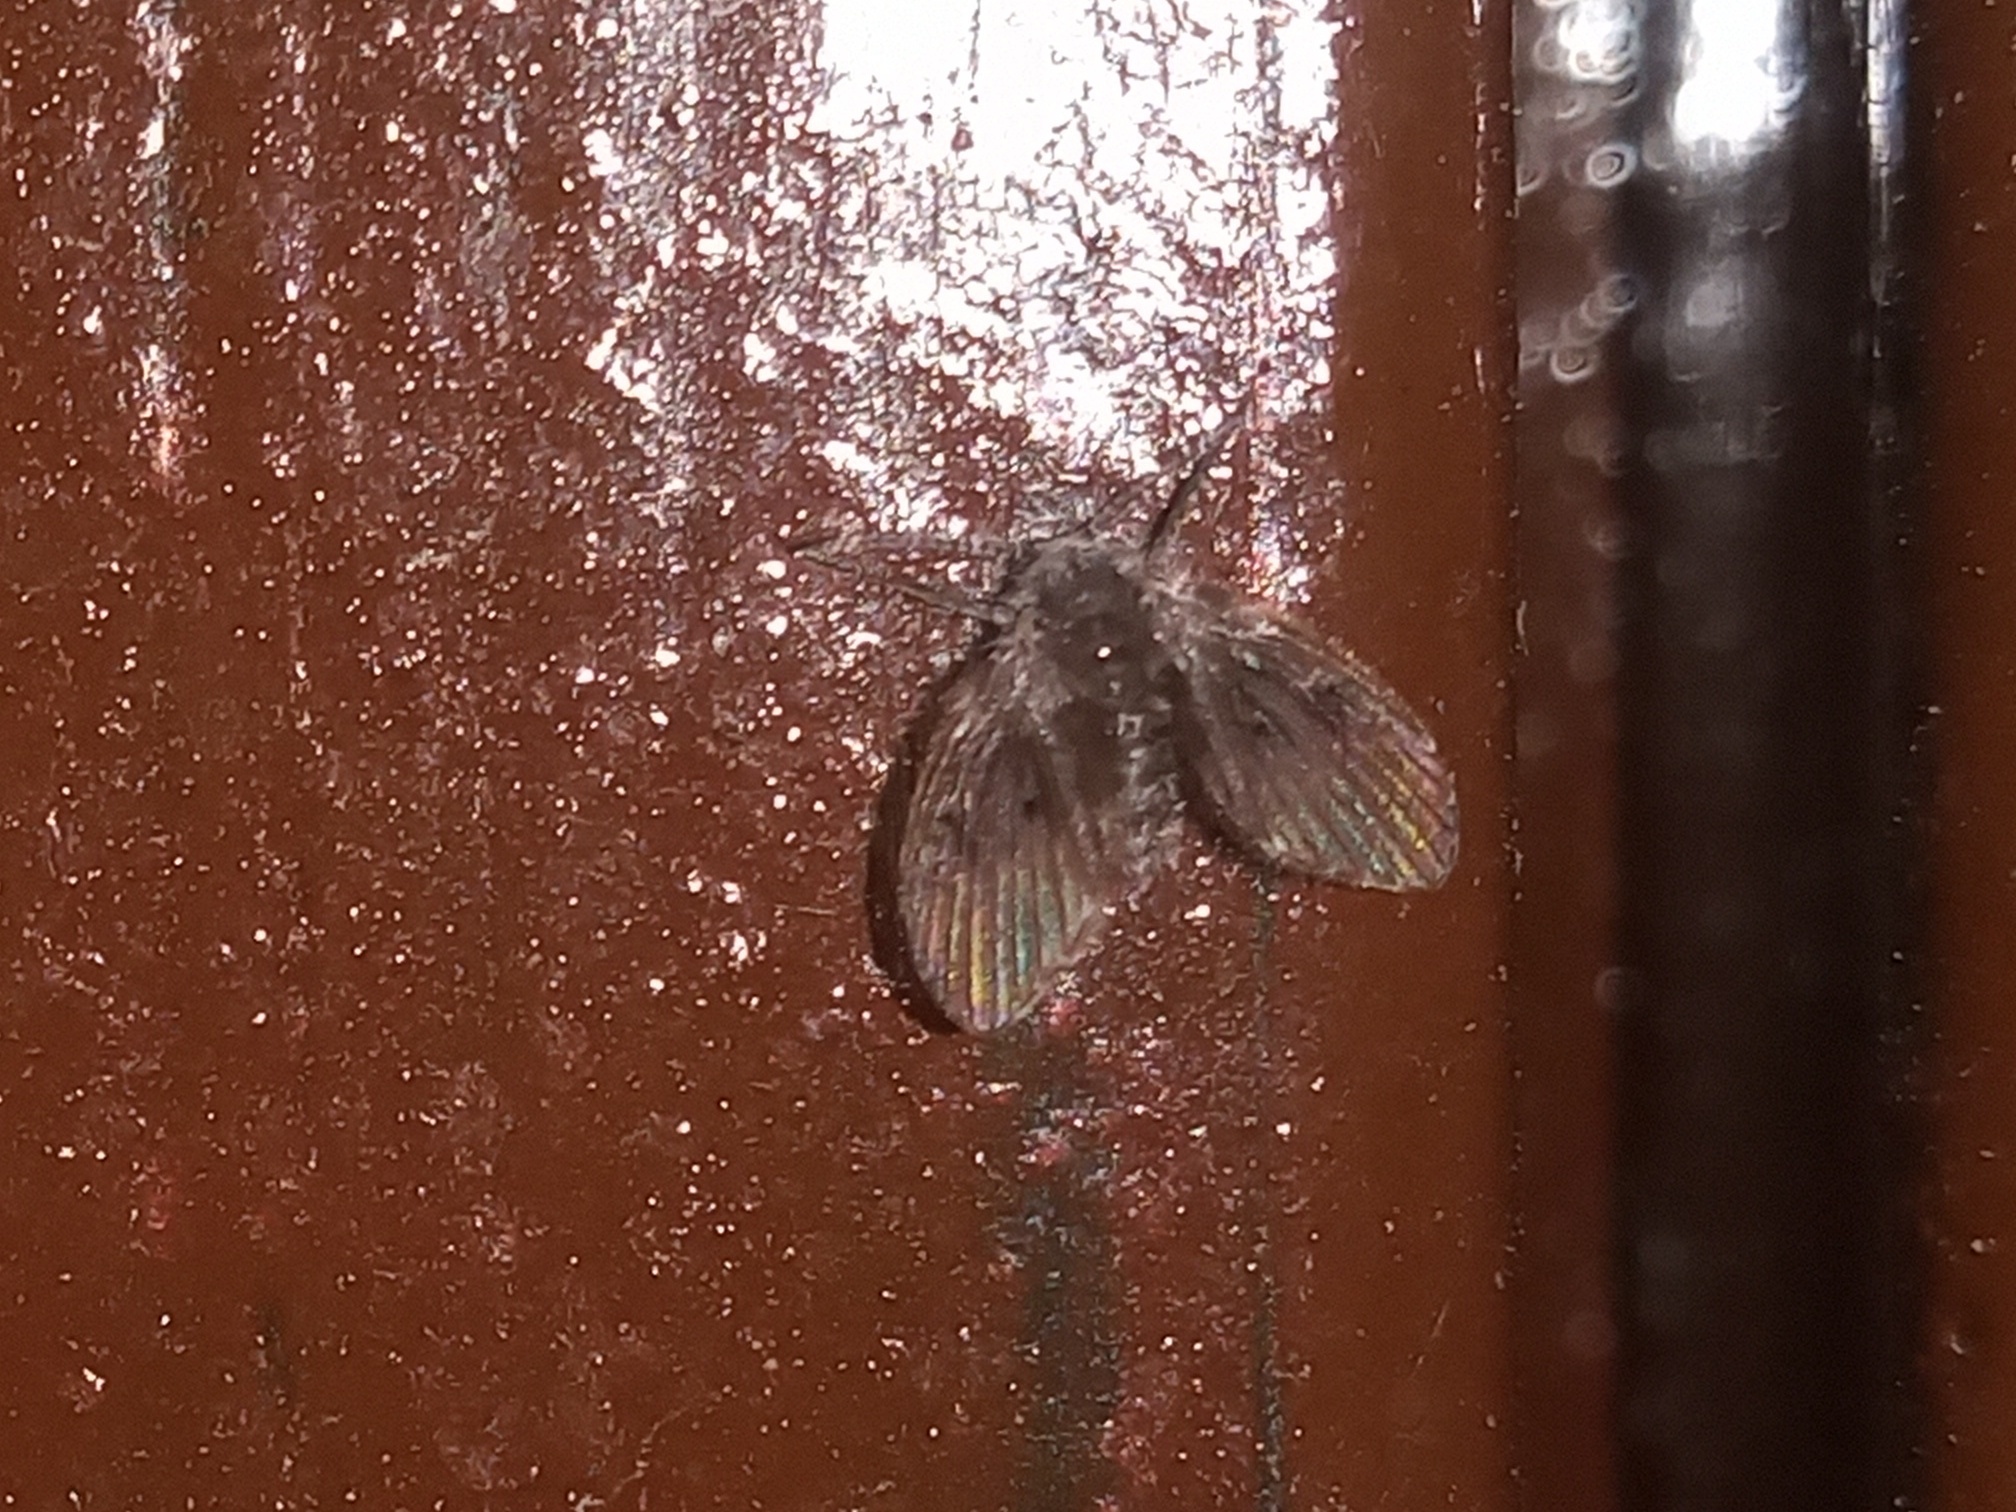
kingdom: Animalia
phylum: Arthropoda
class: Insecta
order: Diptera
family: Psychodidae
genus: Clogmia
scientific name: Clogmia albipunctatus
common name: White-spotted moth fly
